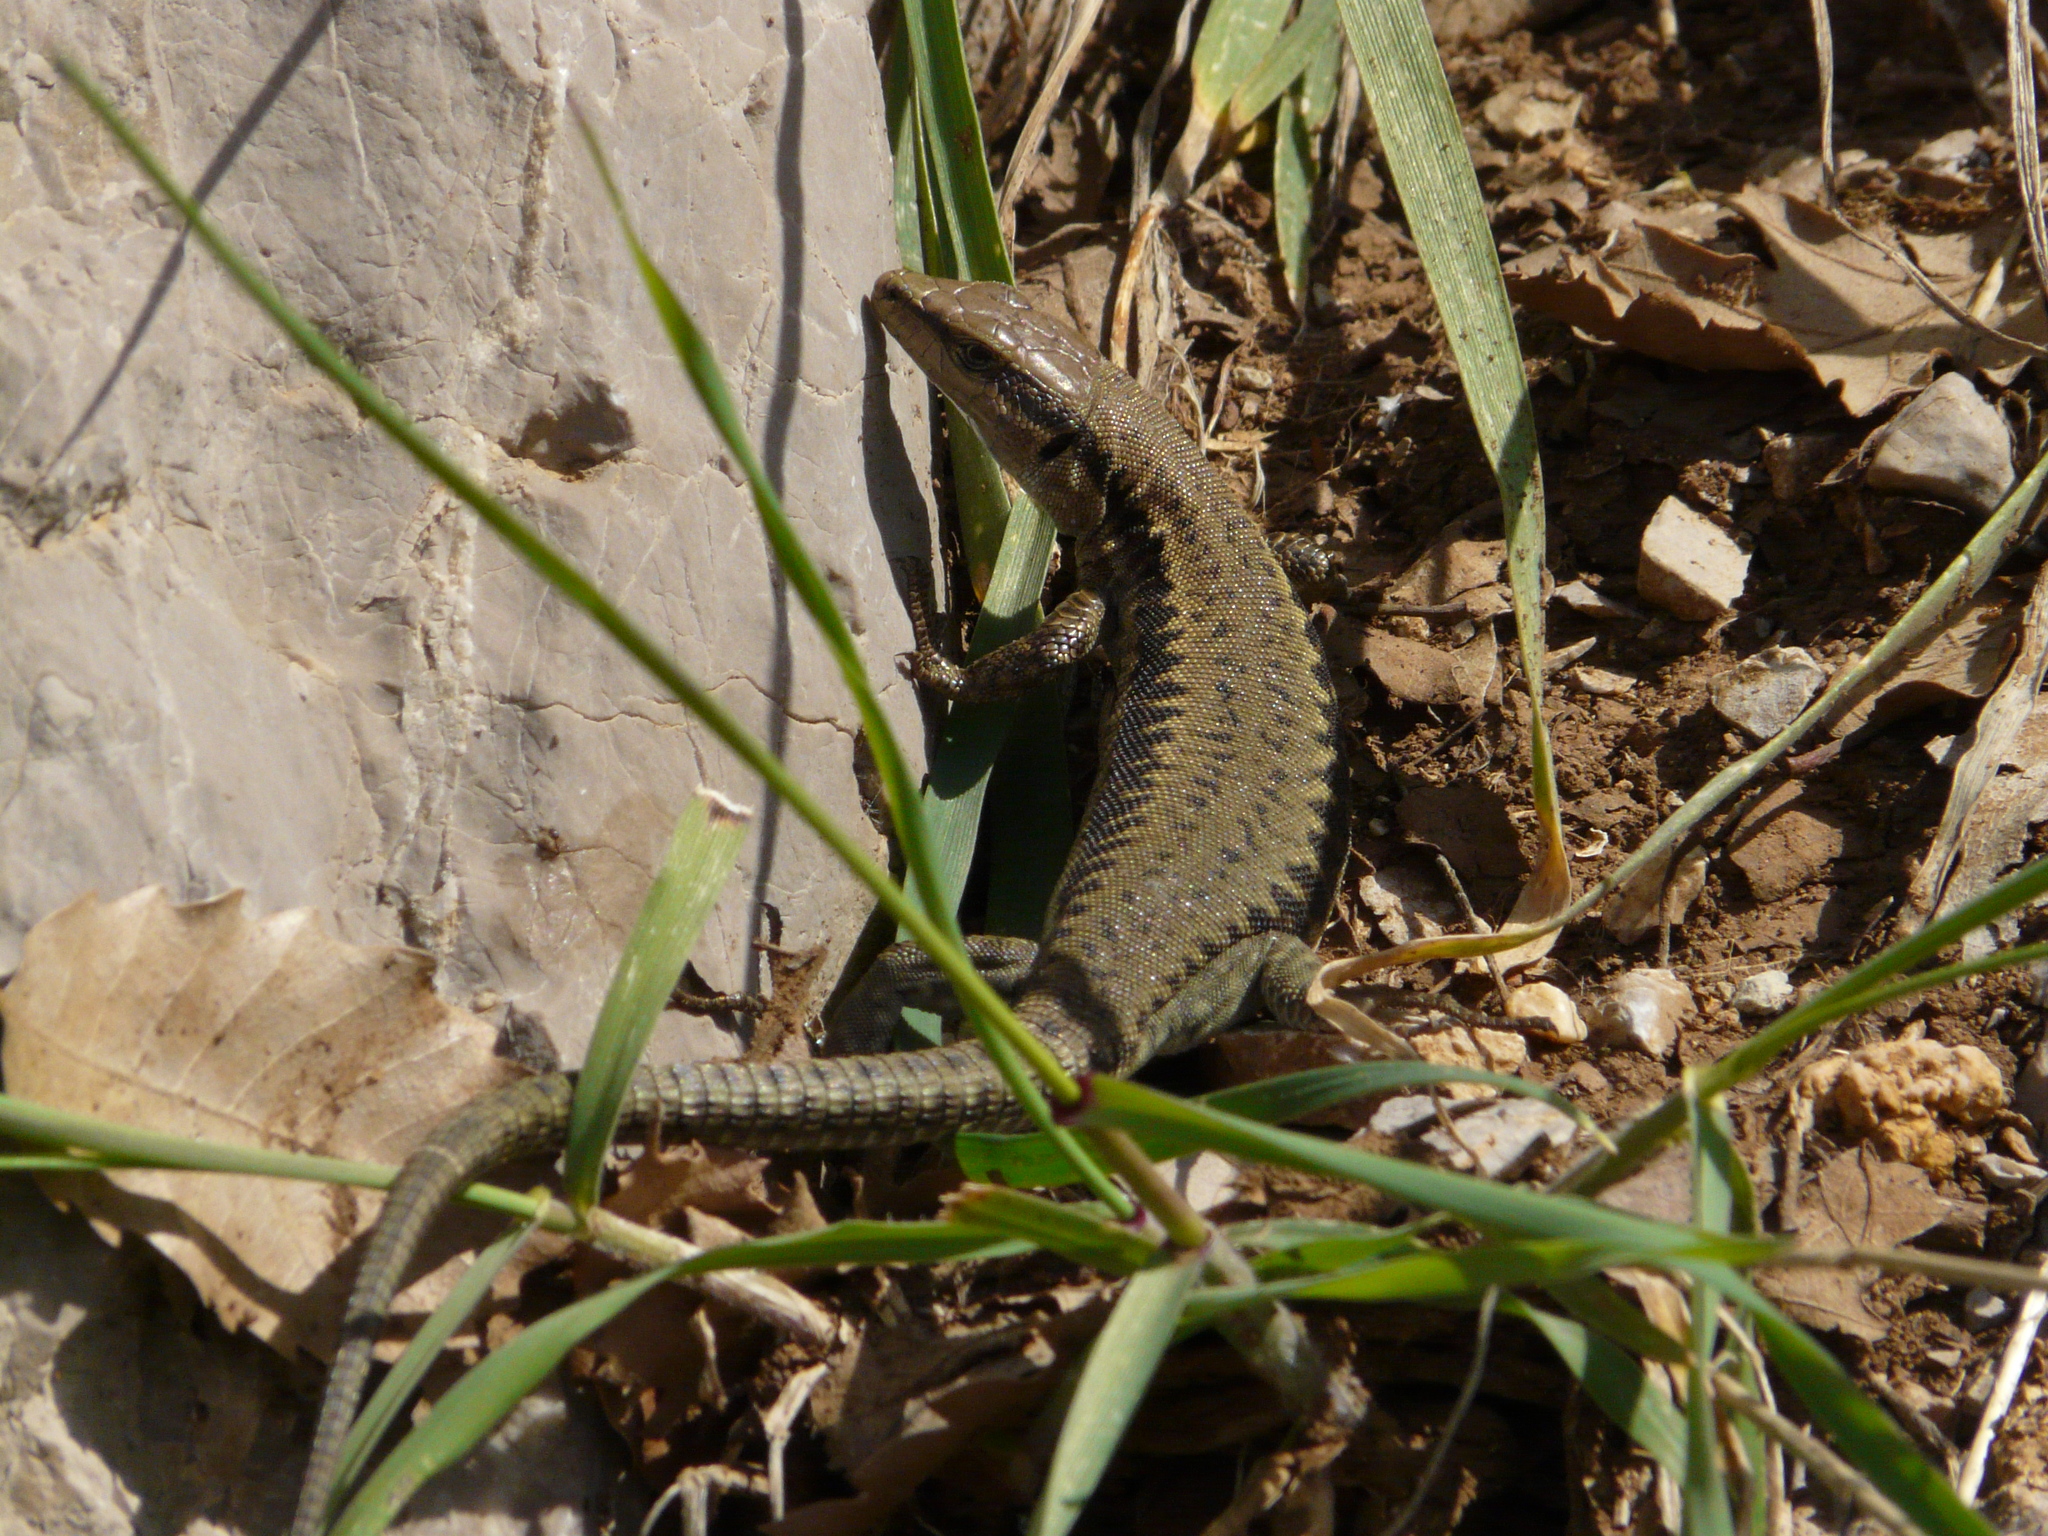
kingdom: Animalia
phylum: Chordata
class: Squamata
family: Lacertidae
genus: Phoenicolacerta
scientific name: Phoenicolacerta kulzeri
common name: Kulzer’s rock lizard
